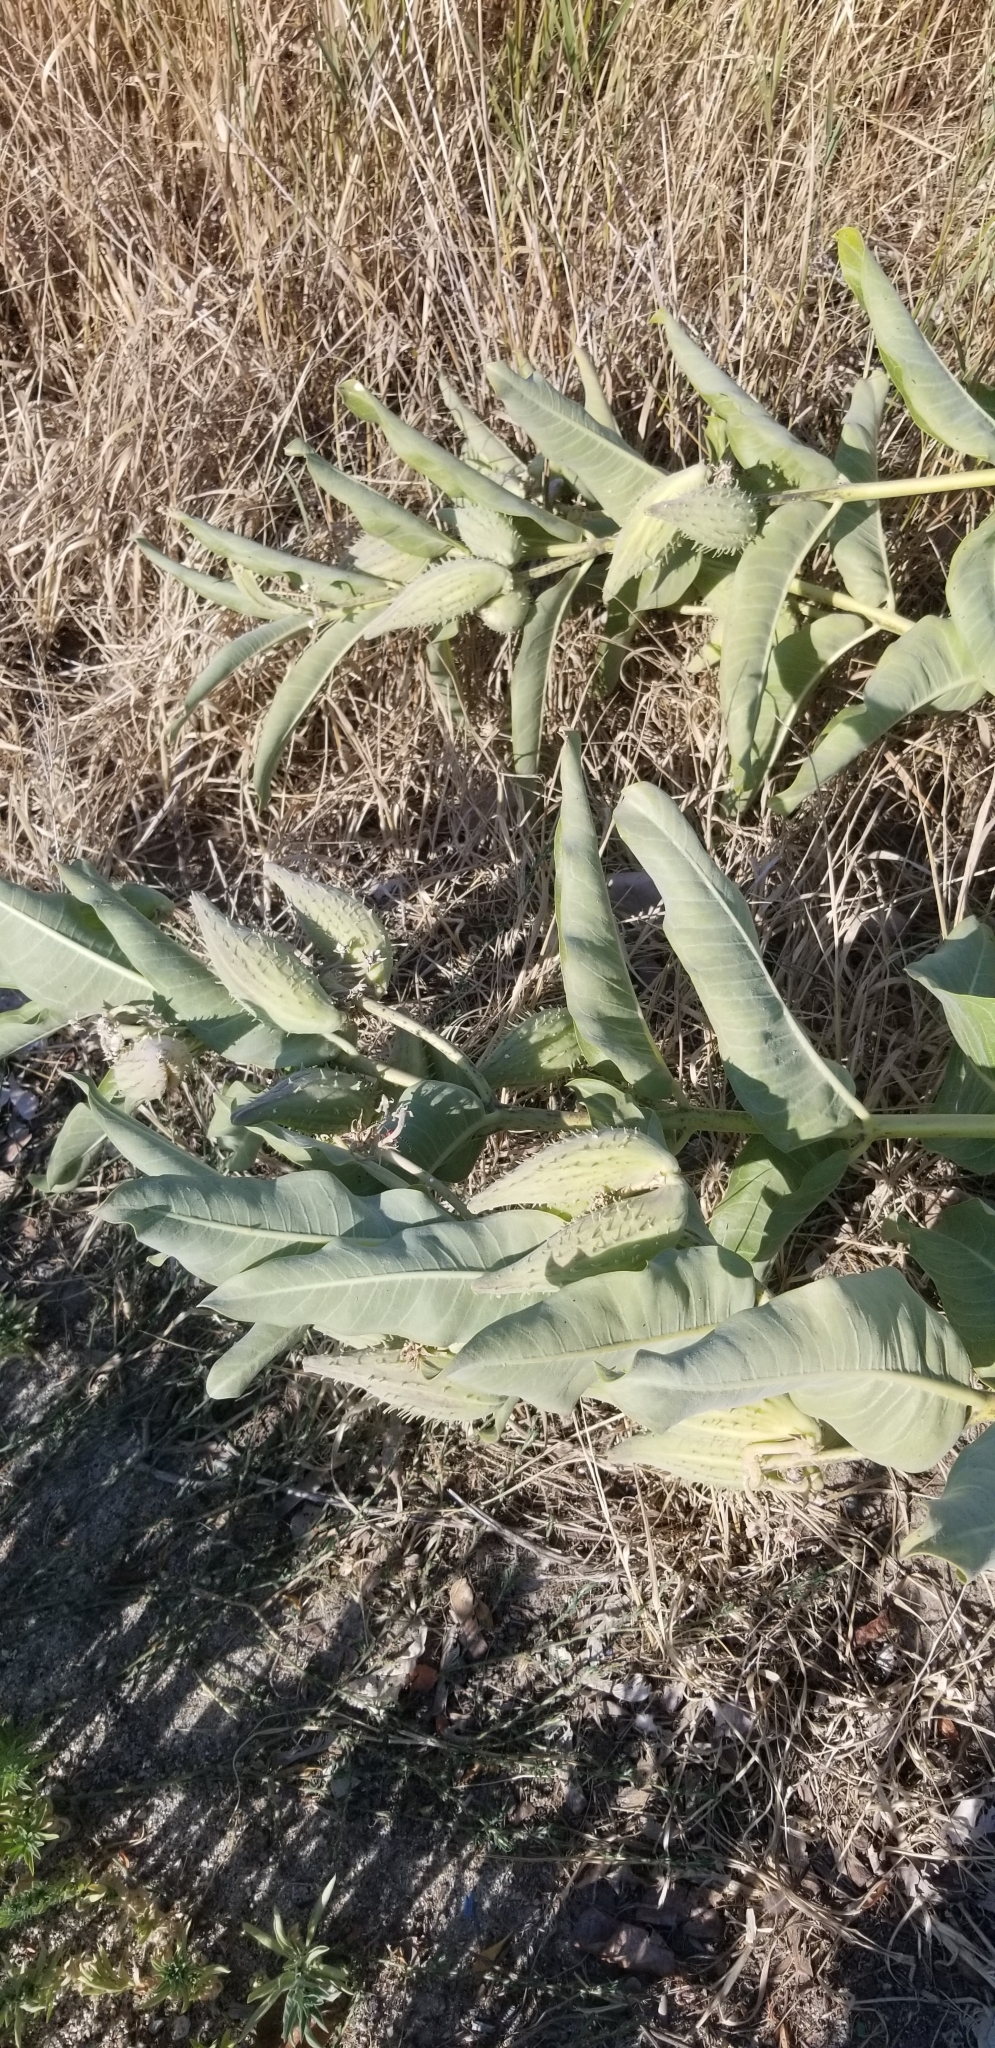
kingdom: Plantae
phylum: Tracheophyta
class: Magnoliopsida
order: Gentianales
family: Apocynaceae
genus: Asclepias
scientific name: Asclepias speciosa
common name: Showy milkweed
